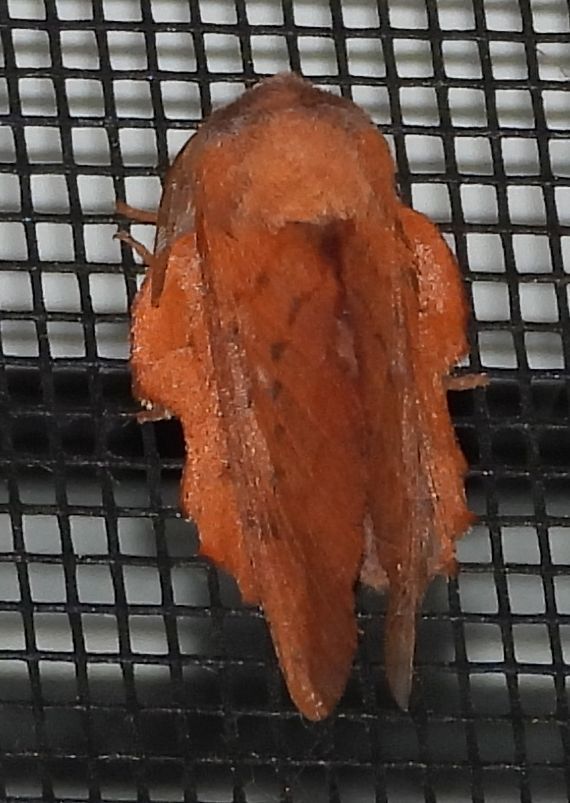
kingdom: Animalia
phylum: Arthropoda
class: Insecta
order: Lepidoptera
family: Lasiocampidae
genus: Phyllodesma
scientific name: Phyllodesma americana
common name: American lappet moth
